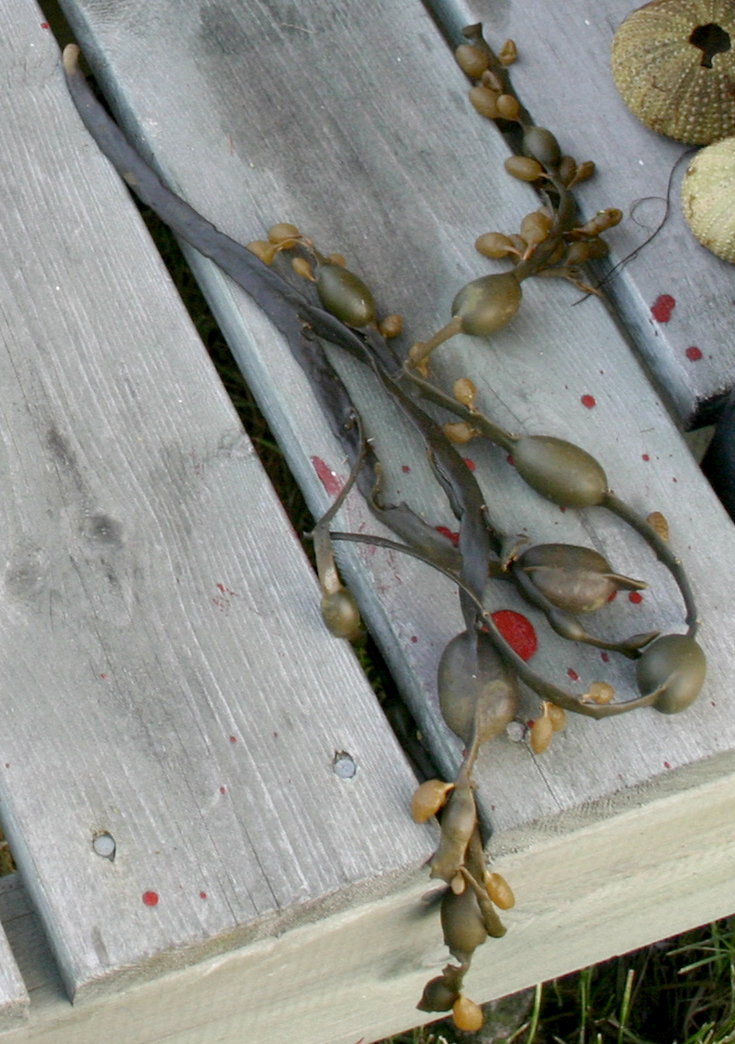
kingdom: Chromista
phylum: Ochrophyta
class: Phaeophyceae
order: Fucales
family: Fucaceae
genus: Ascophyllum
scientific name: Ascophyllum nodosum
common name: Knotted wrack
